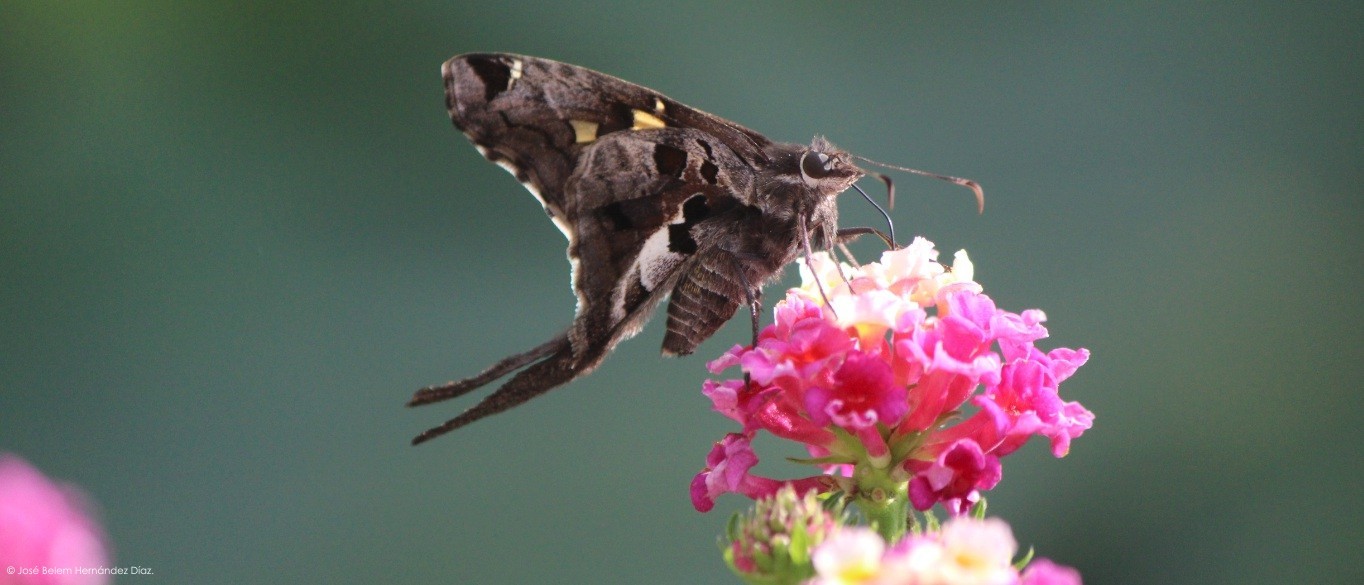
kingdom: Animalia
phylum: Arthropoda
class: Insecta
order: Lepidoptera
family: Hesperiidae
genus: Chioides
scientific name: Chioides zilpa
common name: Zilpa longtail
